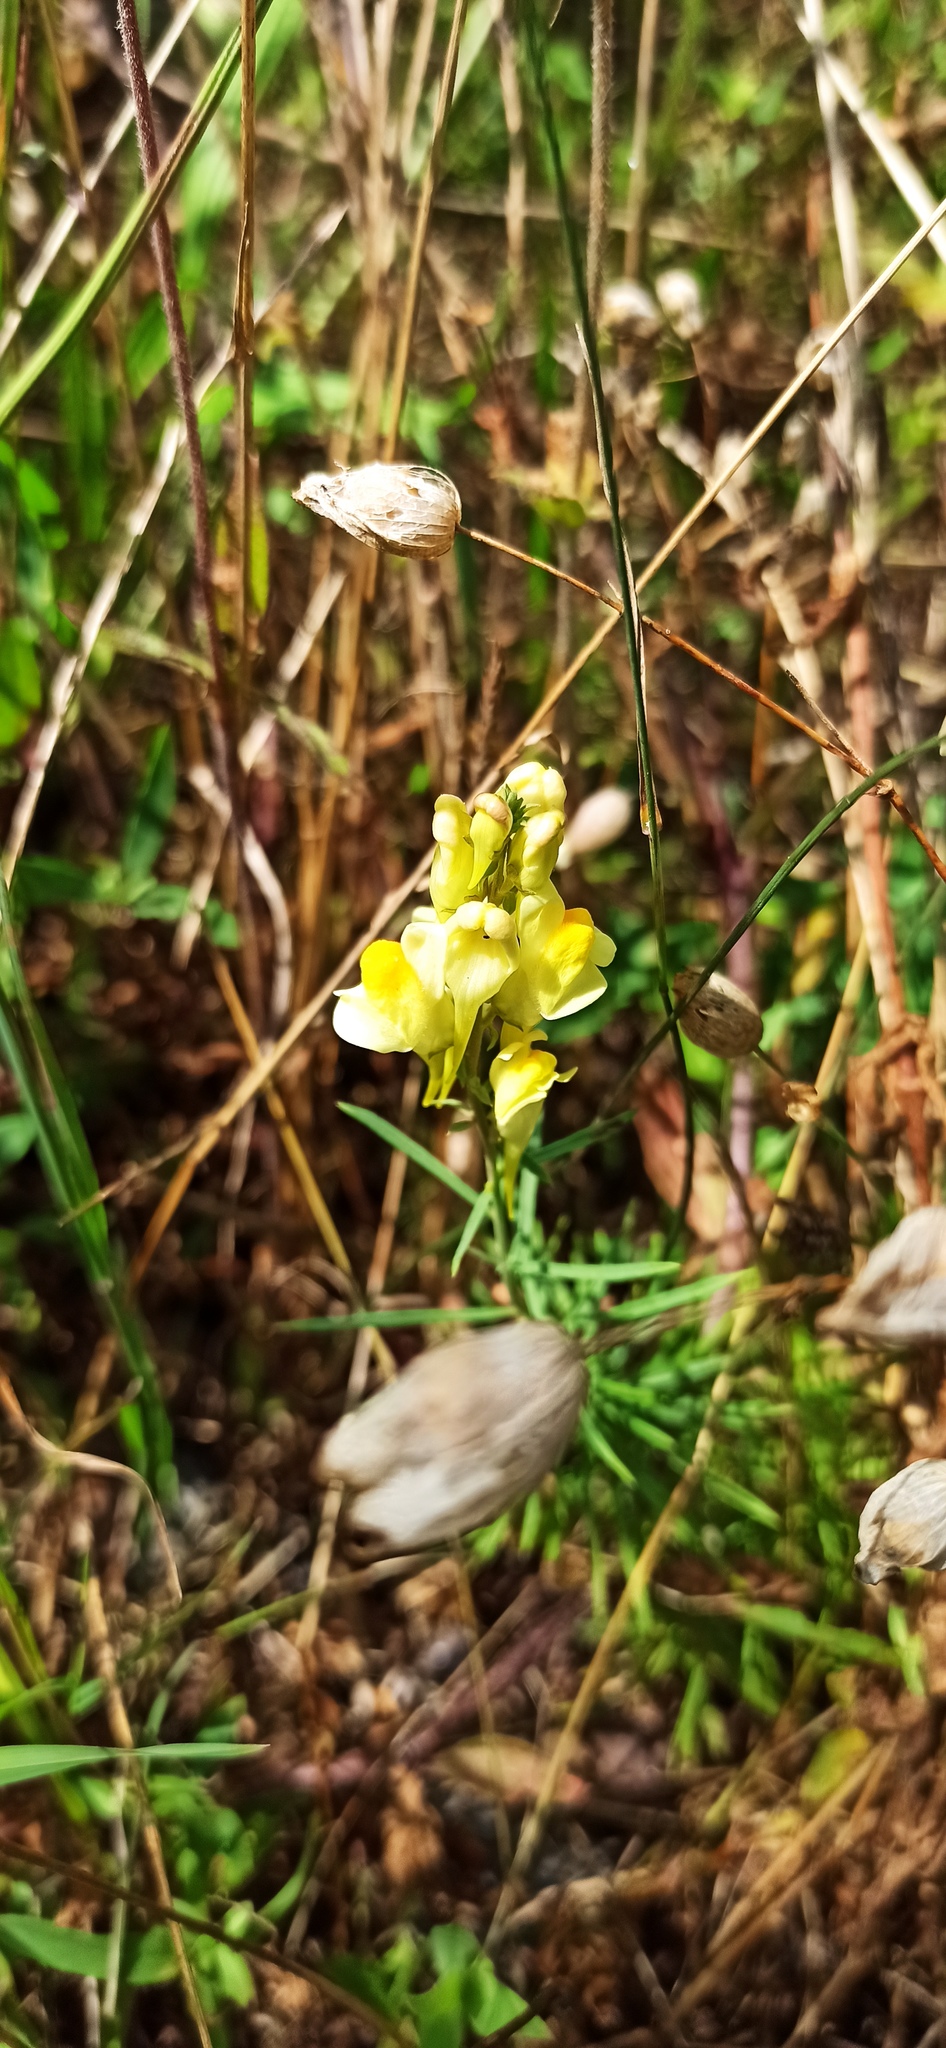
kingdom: Plantae
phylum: Tracheophyta
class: Magnoliopsida
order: Lamiales
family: Plantaginaceae
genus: Linaria
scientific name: Linaria vulgaris
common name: Butter and eggs
